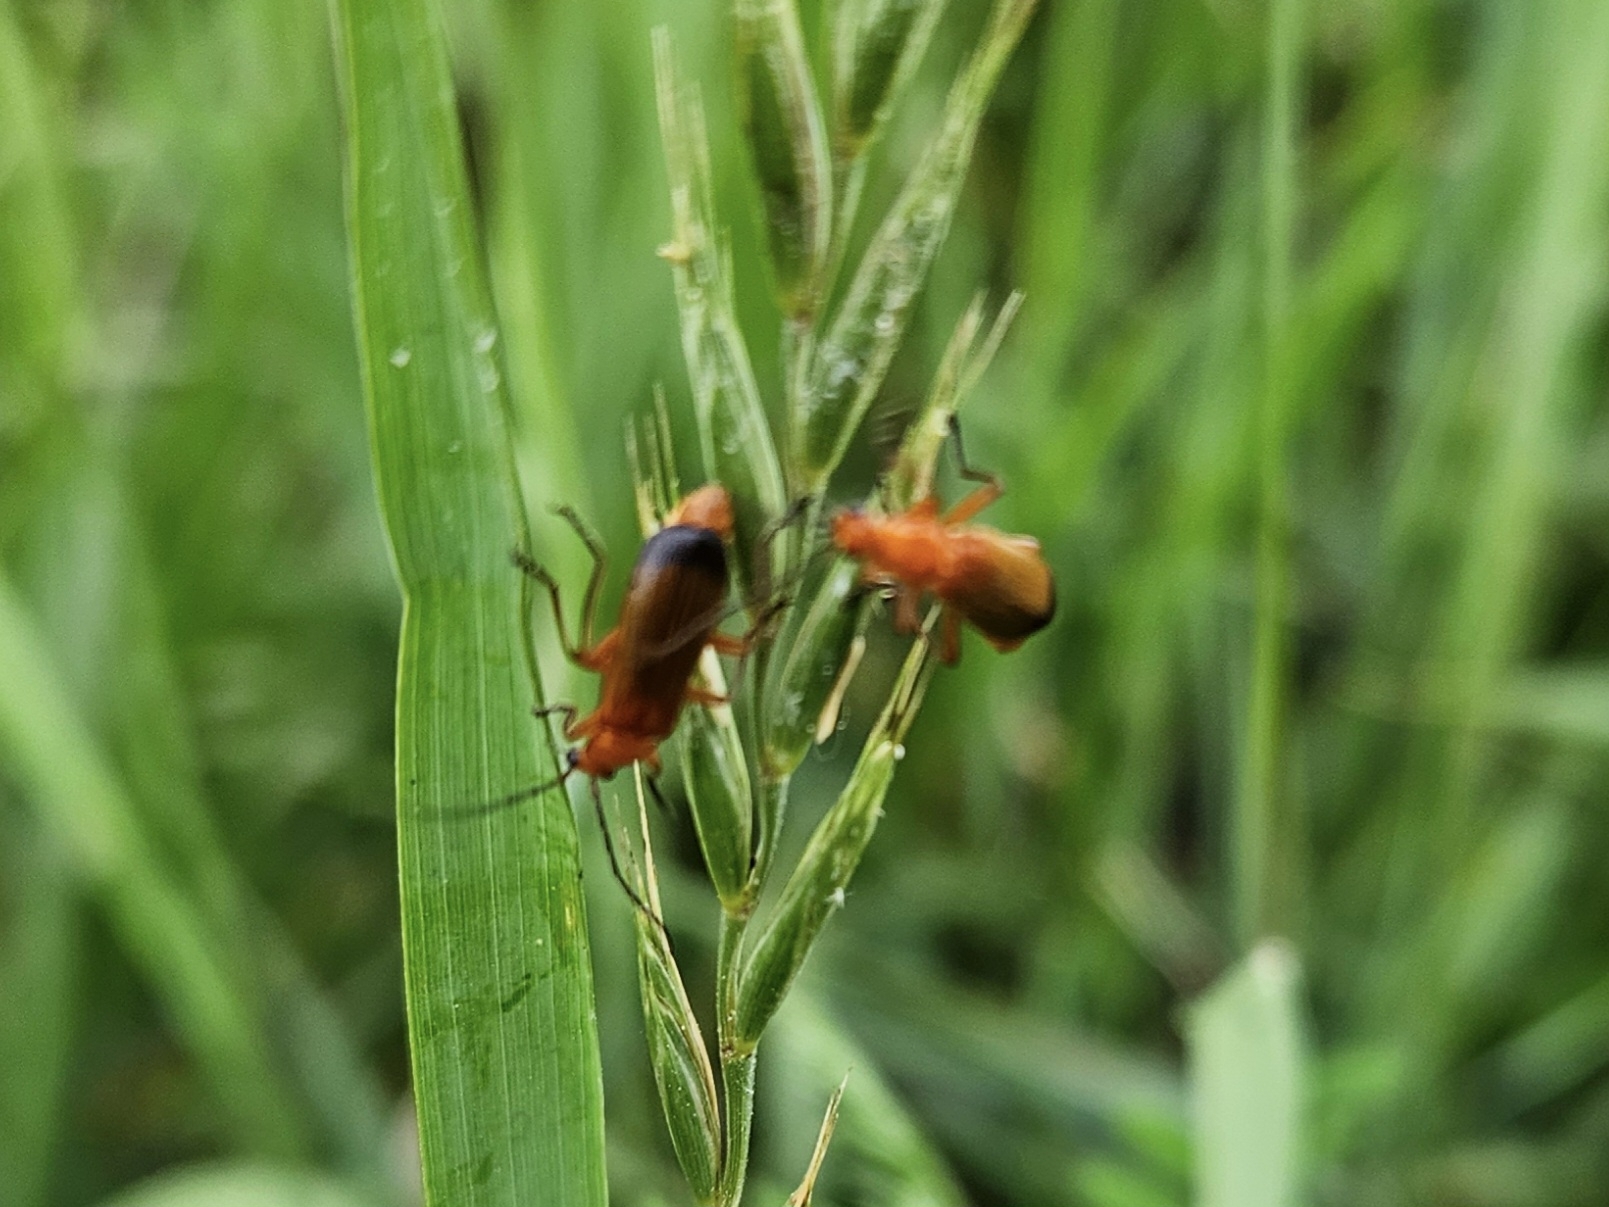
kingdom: Animalia
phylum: Arthropoda
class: Insecta
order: Coleoptera
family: Cantharidae
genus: Rhagonycha
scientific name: Rhagonycha fulva
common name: Common red soldier beetle
